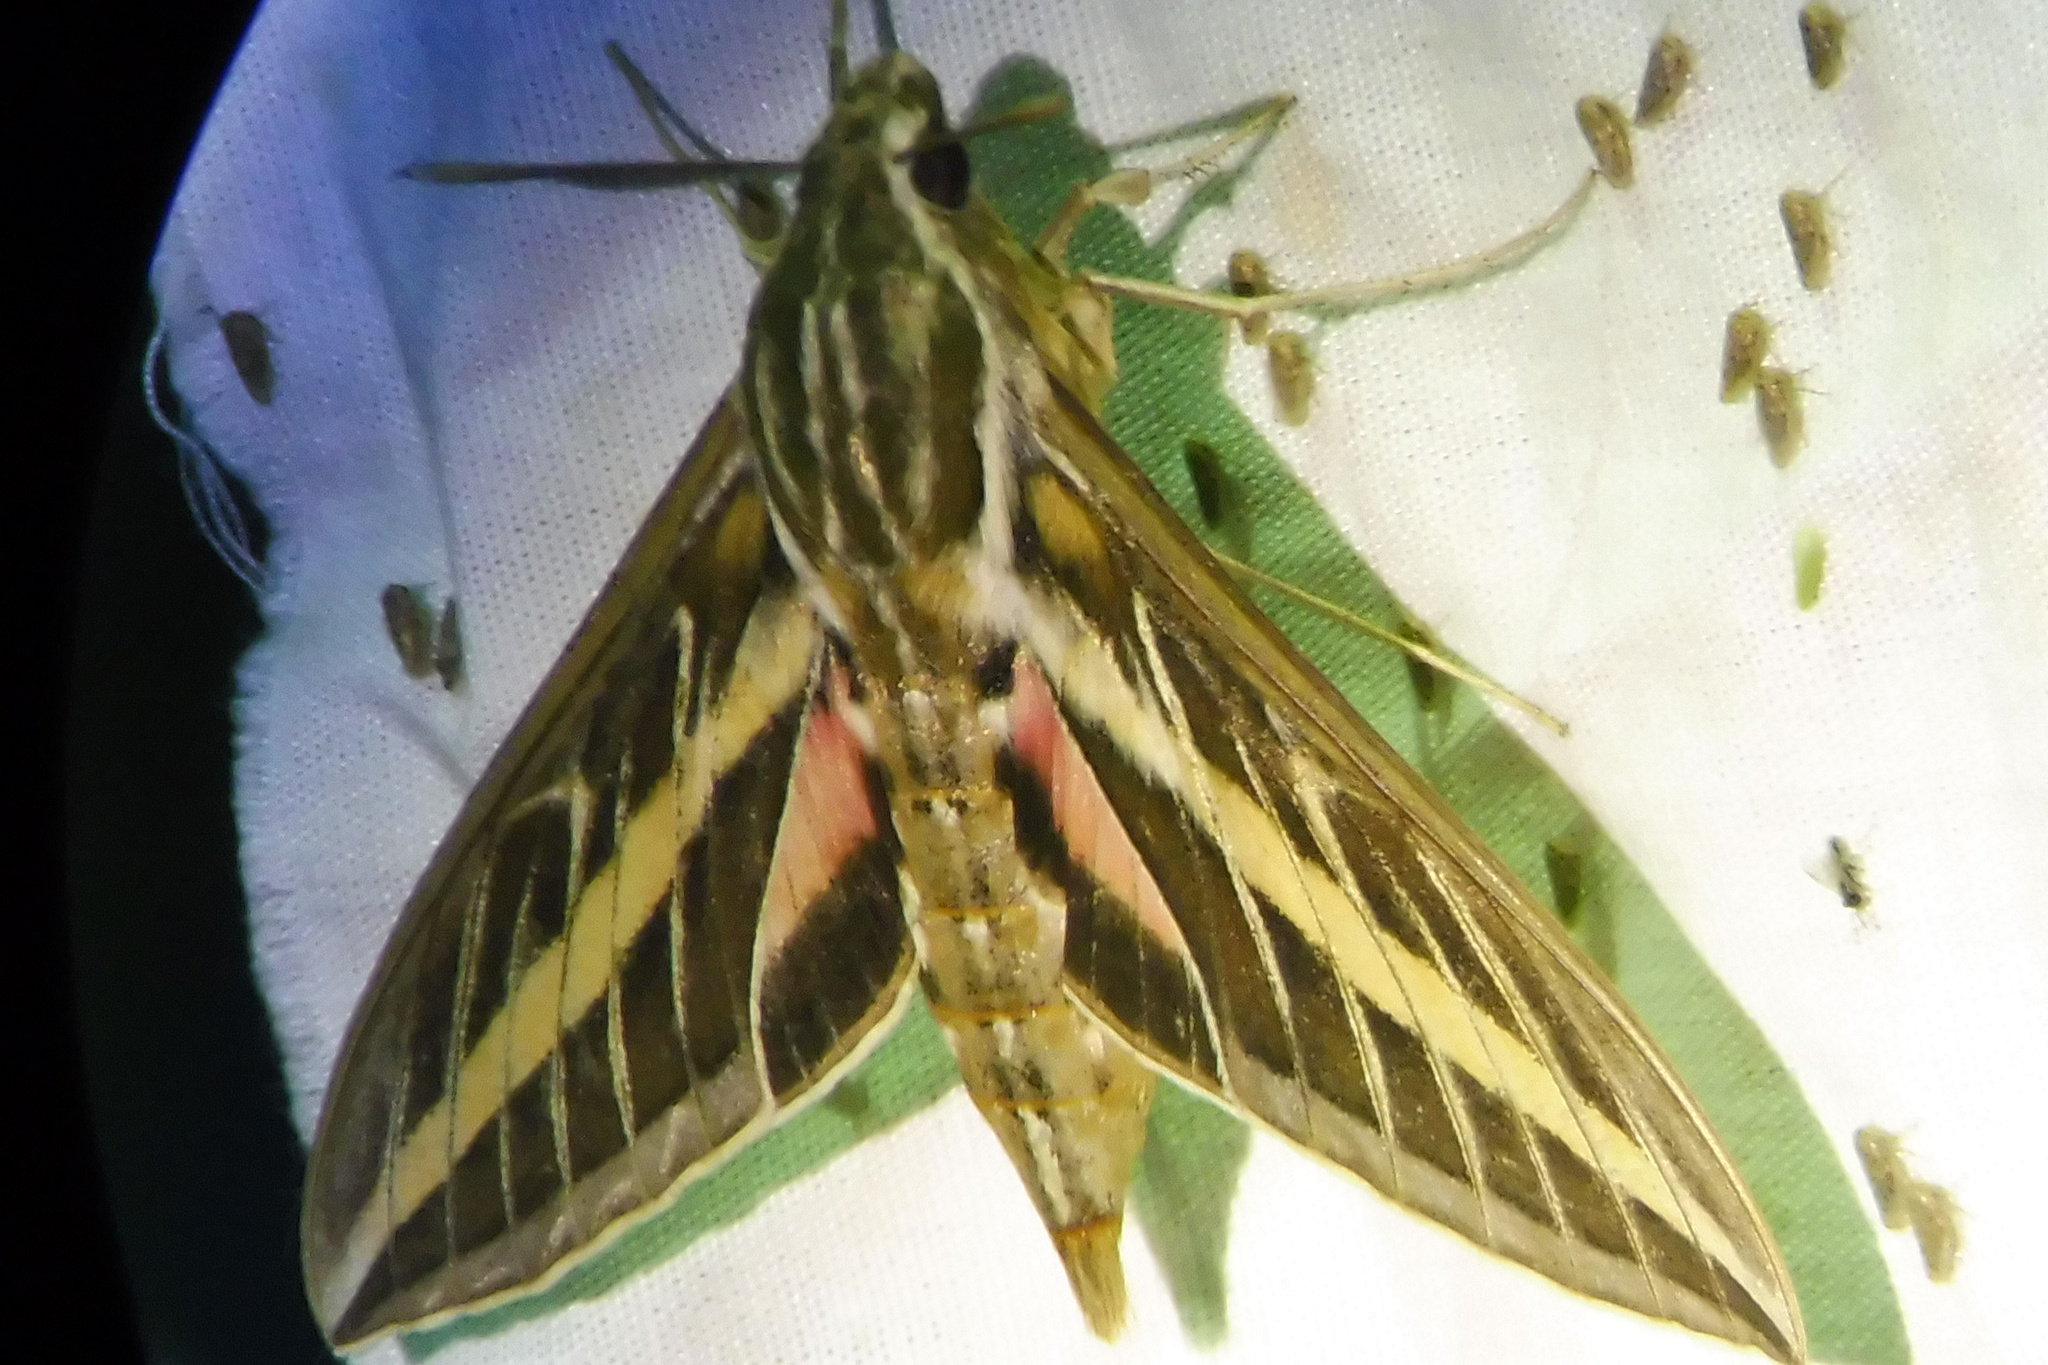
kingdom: Animalia
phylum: Arthropoda
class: Insecta
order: Lepidoptera
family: Sphingidae
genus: Hyles
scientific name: Hyles lineata
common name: White-lined sphinx
